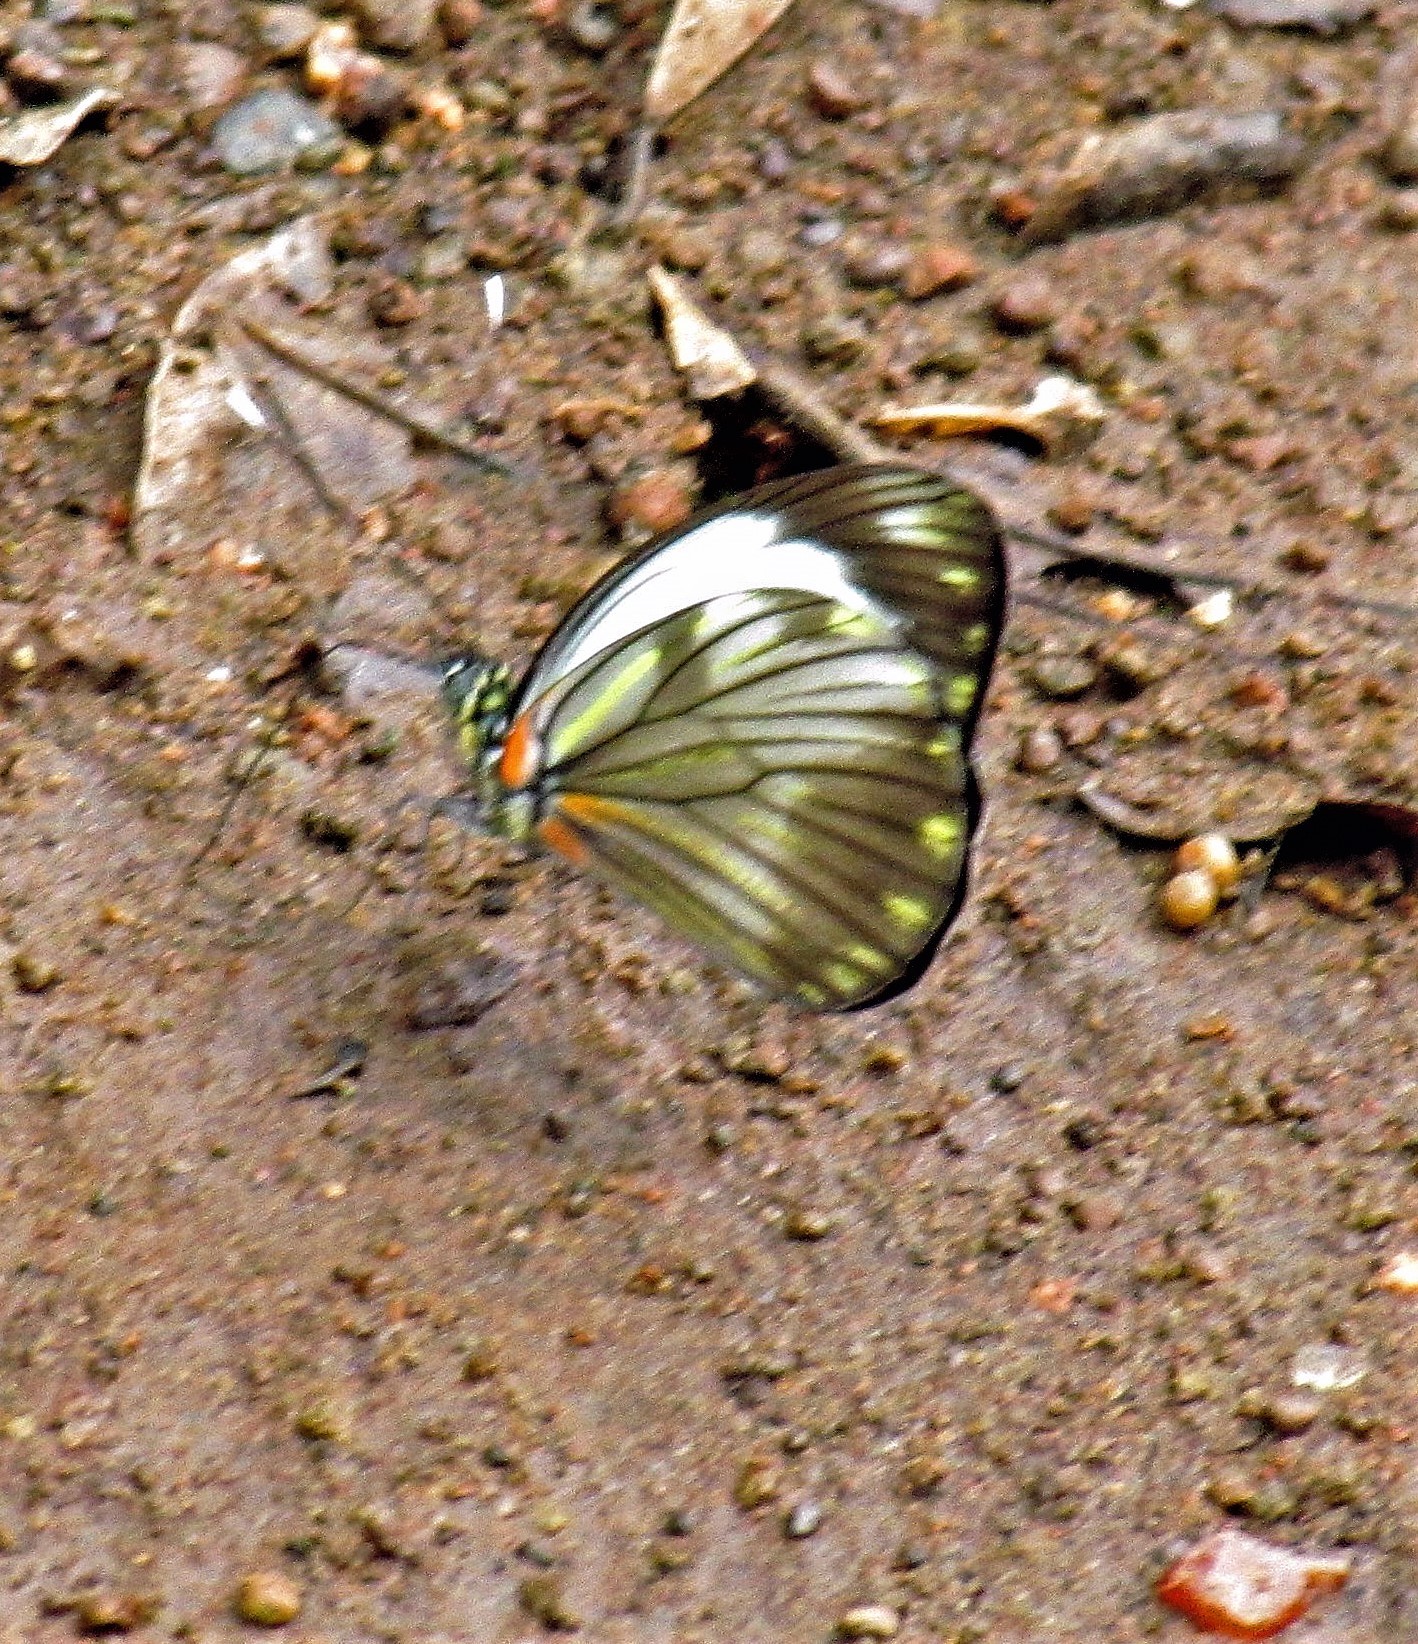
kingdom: Animalia
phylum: Arthropoda
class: Insecta
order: Lepidoptera
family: Pieridae
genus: Pieriballia
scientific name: Pieriballia viardi
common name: Painted white
